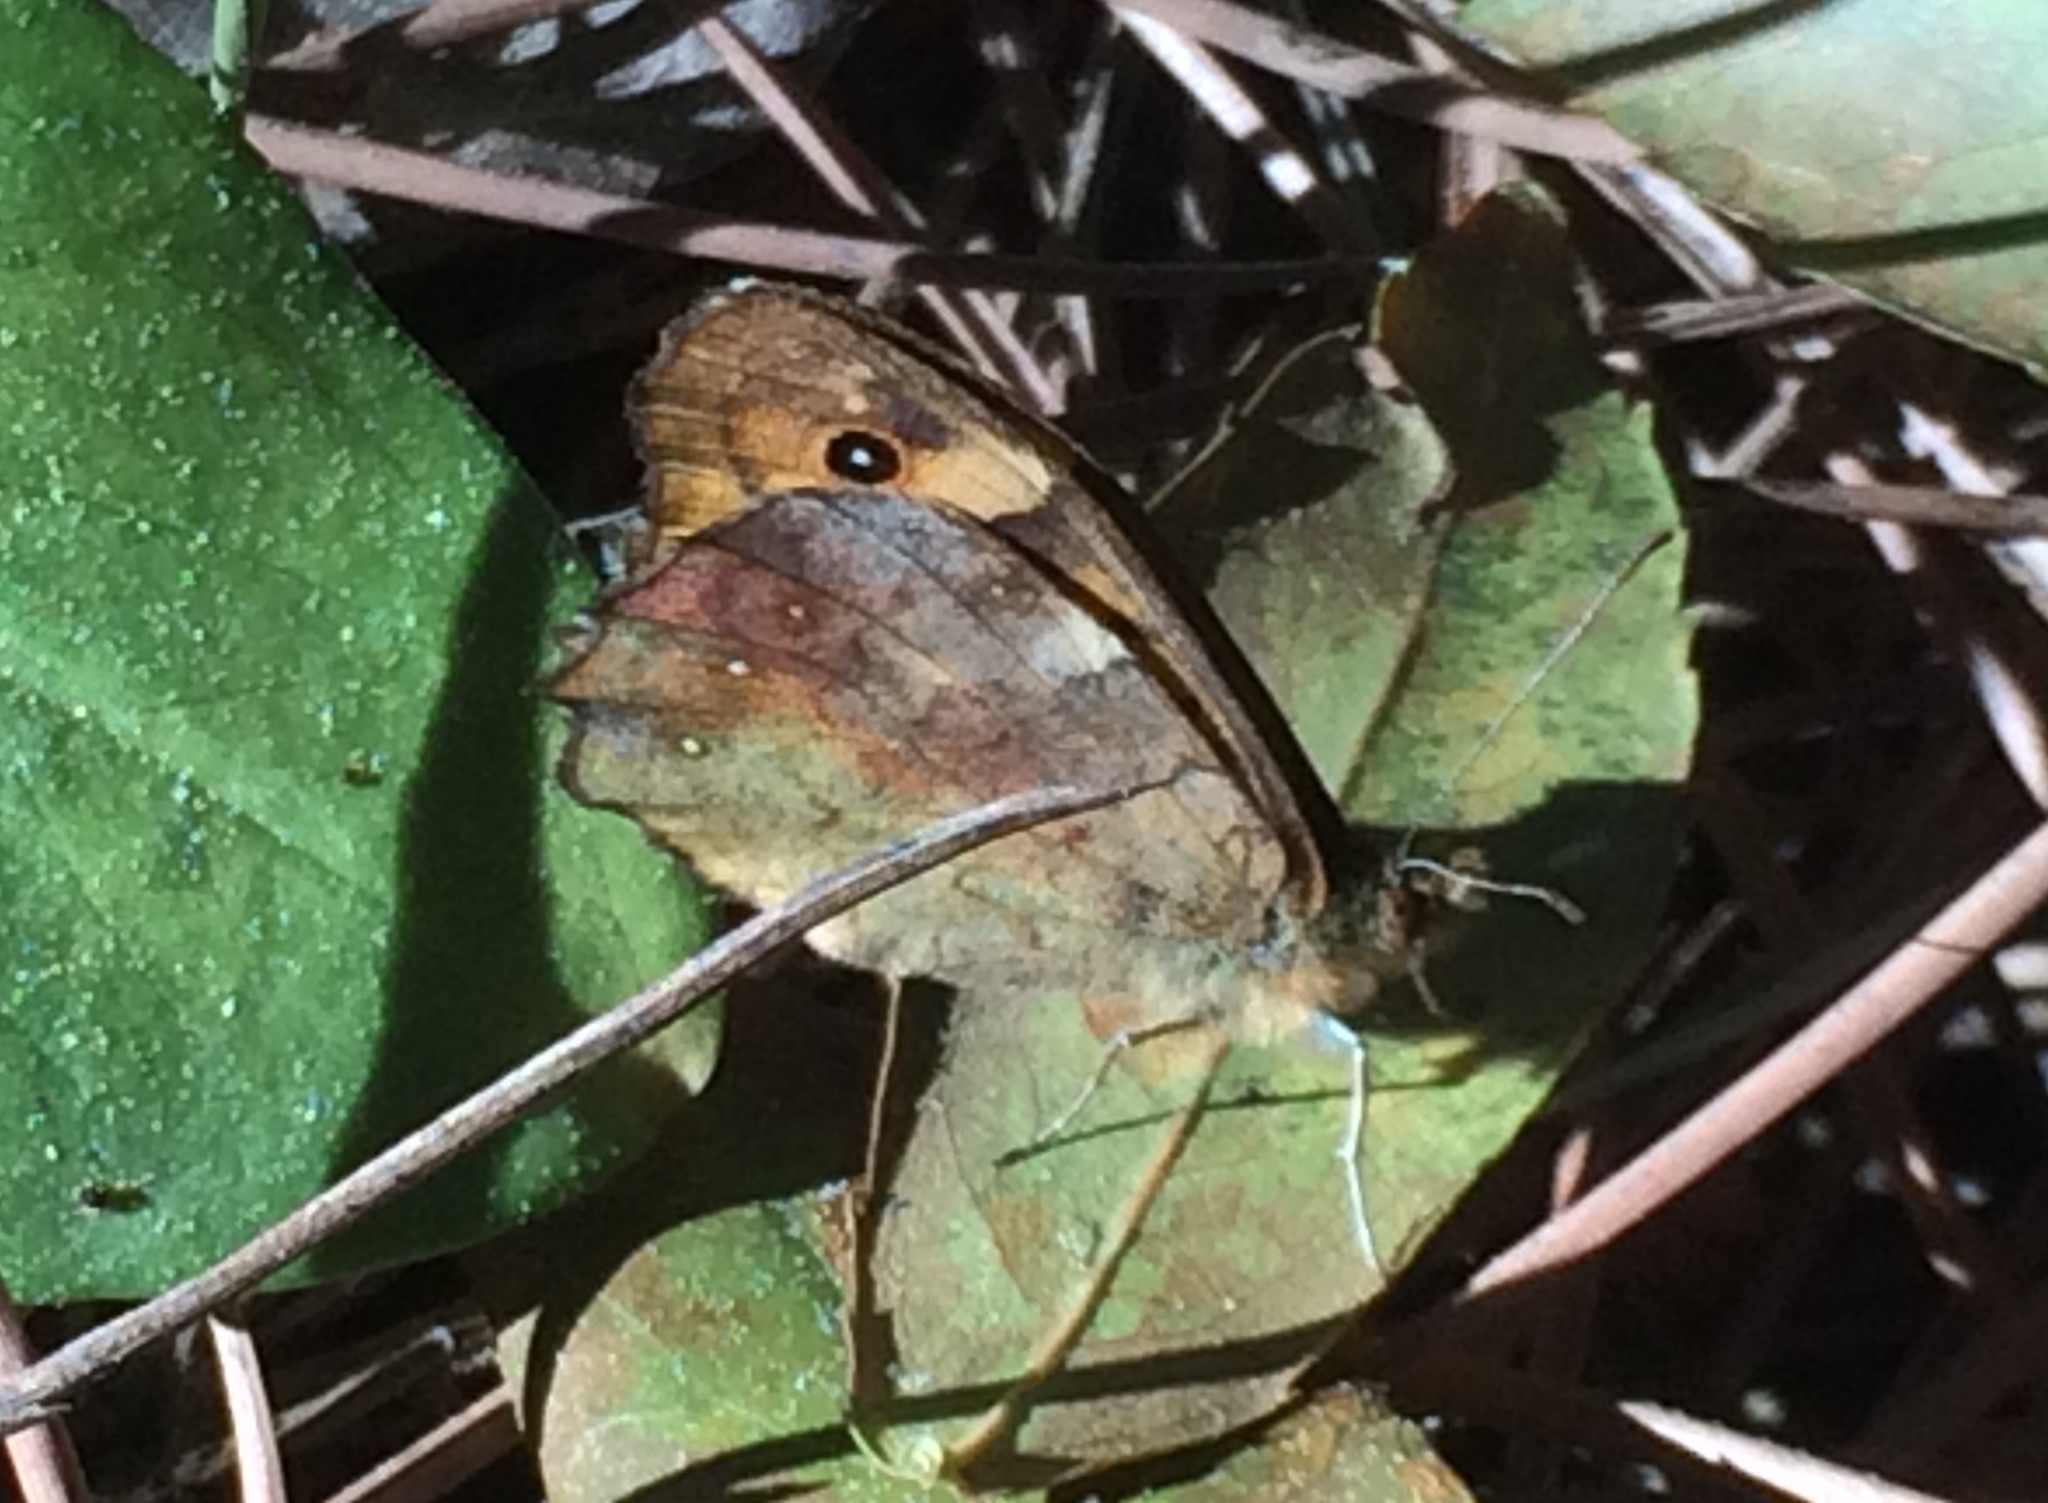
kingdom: Animalia
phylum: Arthropoda
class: Insecta
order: Lepidoptera
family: Nymphalidae
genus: Pararge
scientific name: Pararge aegeria
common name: Speckled wood
